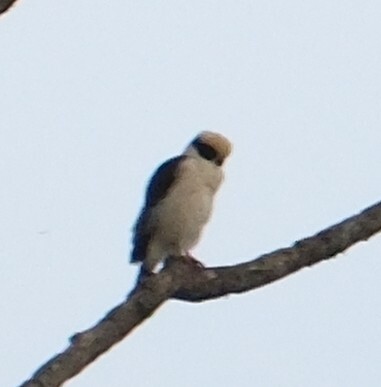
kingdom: Animalia
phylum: Chordata
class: Aves
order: Falconiformes
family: Falconidae
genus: Herpetotheres
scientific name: Herpetotheres cachinnans
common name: Laughing falcon
